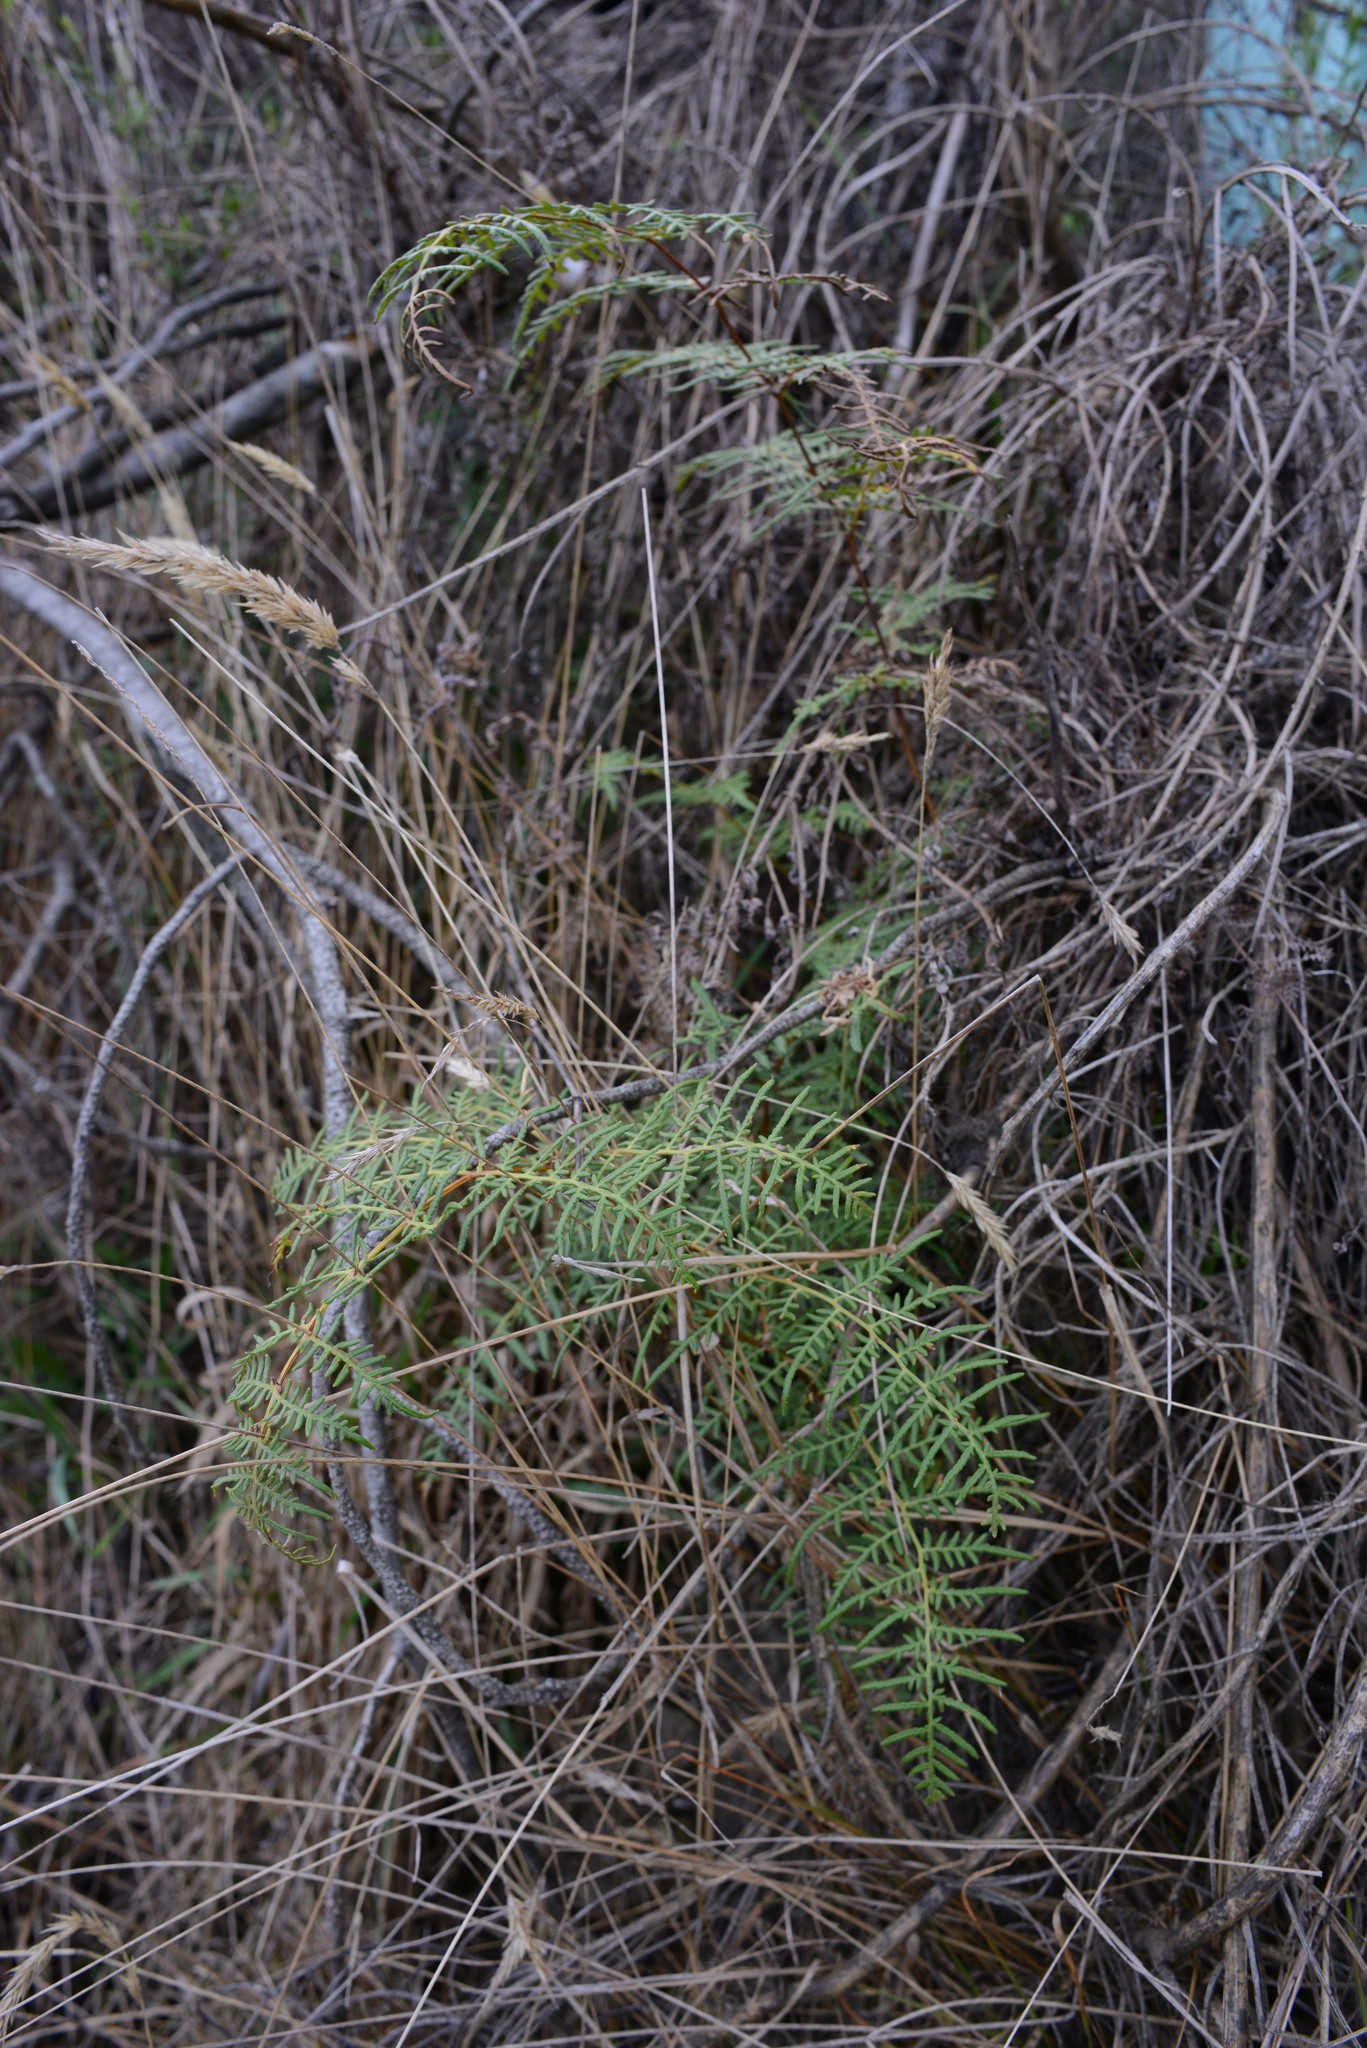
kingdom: Plantae
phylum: Tracheophyta
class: Polypodiopsida
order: Polypodiales
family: Dennstaedtiaceae
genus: Pteridium
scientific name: Pteridium esculentum
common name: Bracken fern
